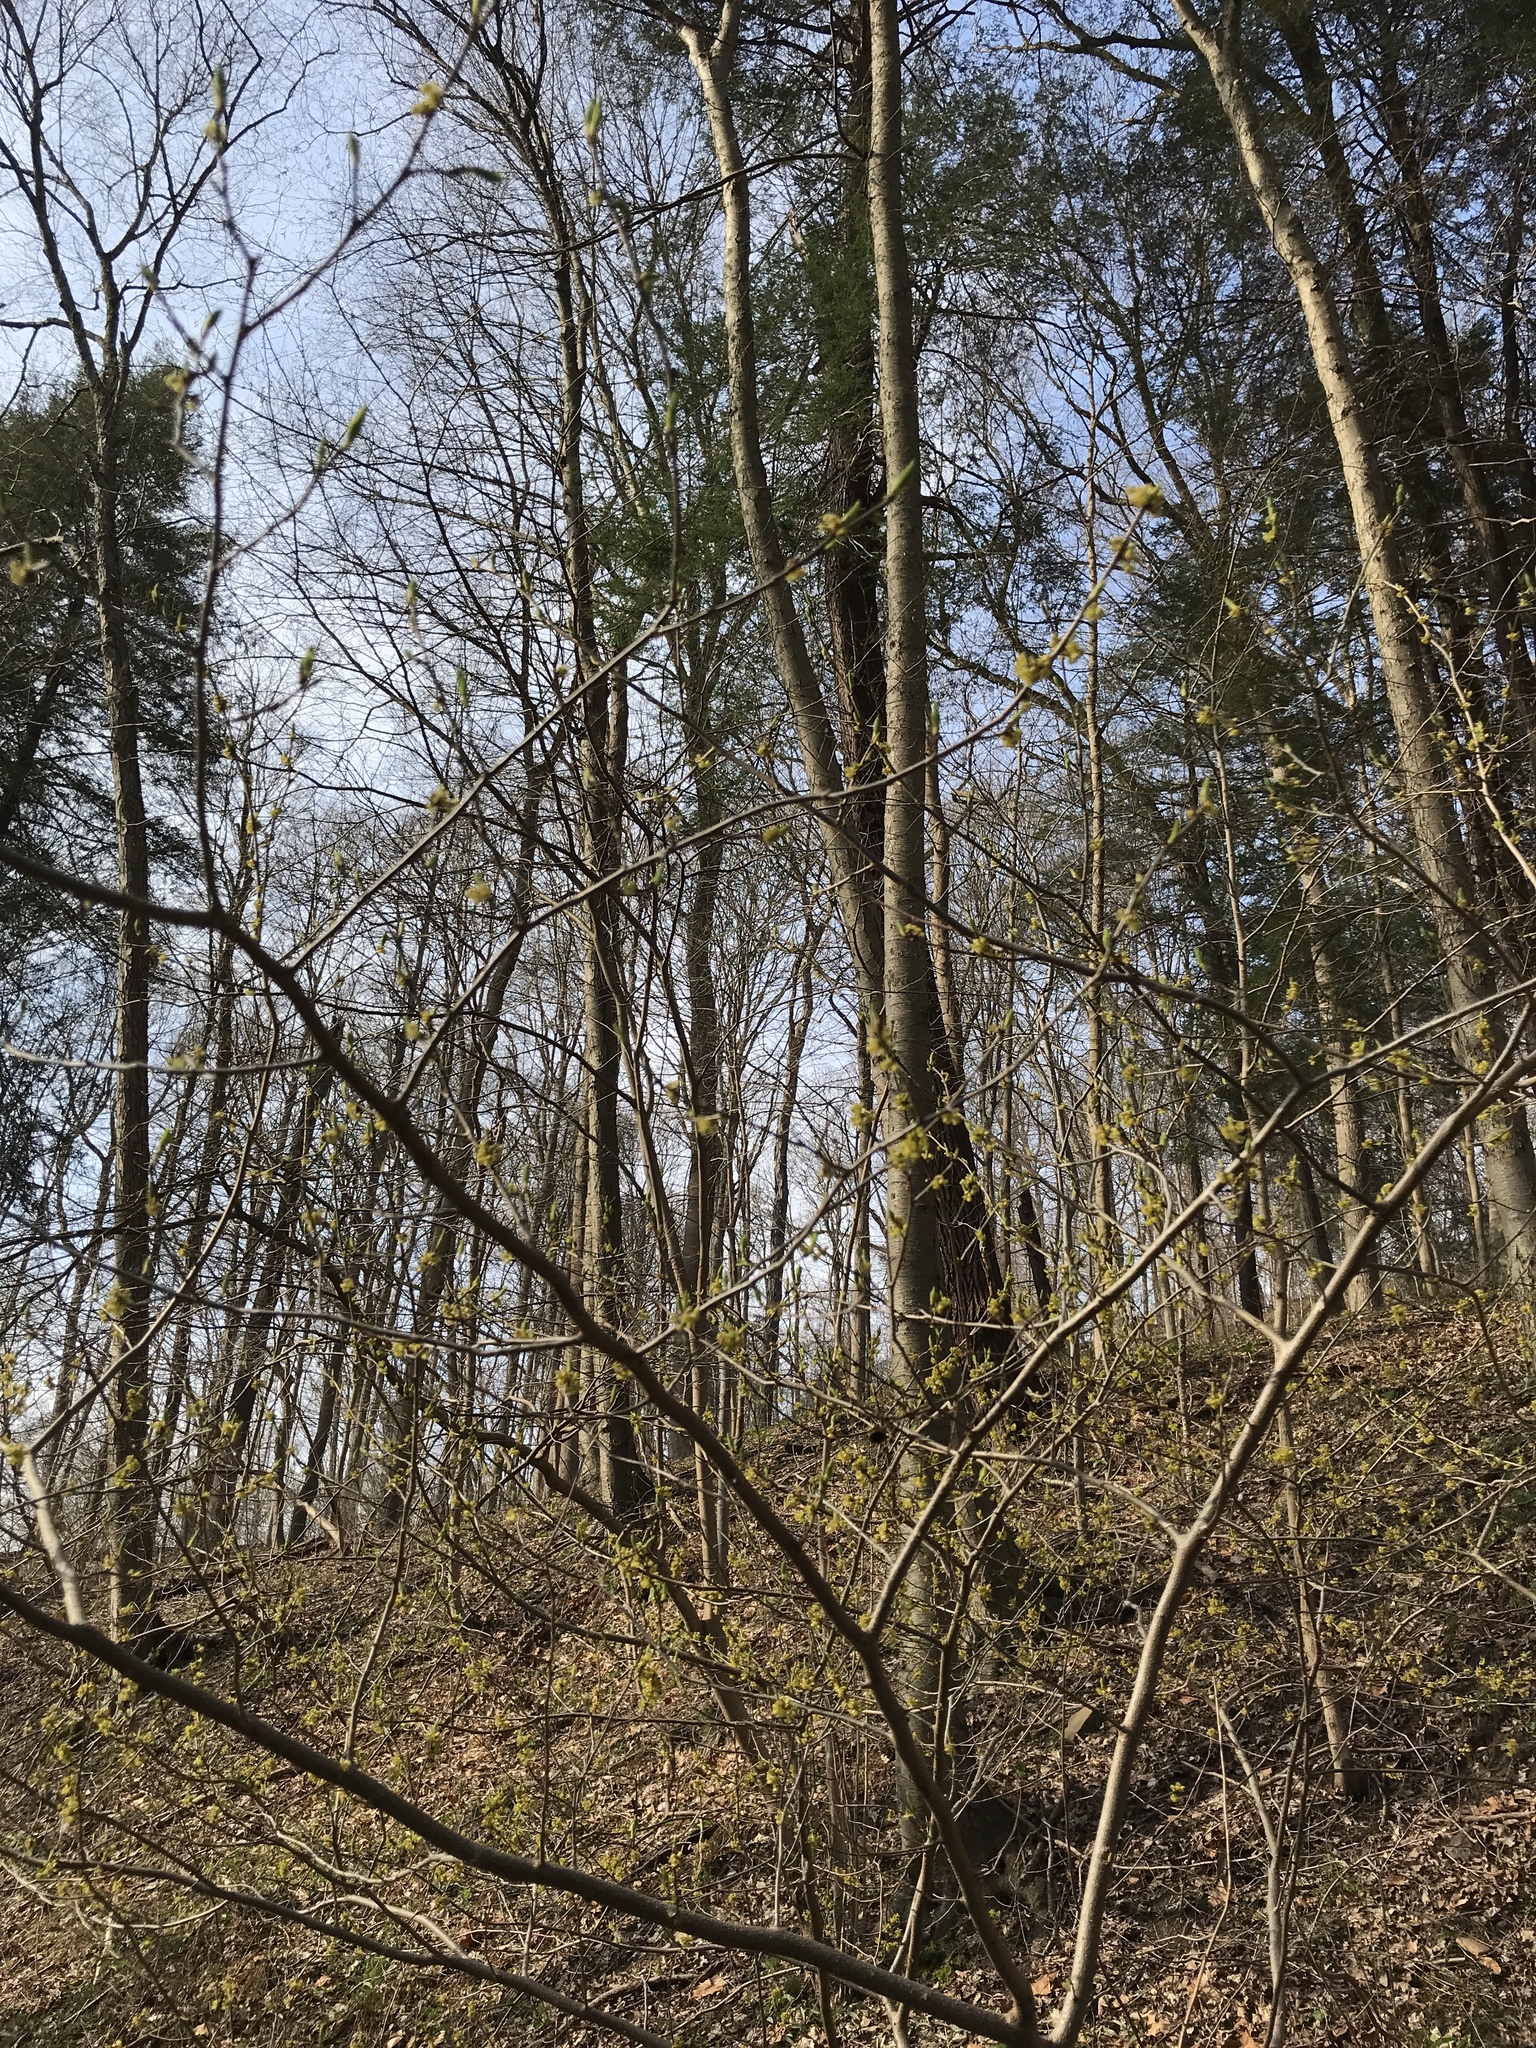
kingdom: Plantae
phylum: Tracheophyta
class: Magnoliopsida
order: Laurales
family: Lauraceae
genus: Lindera
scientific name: Lindera benzoin
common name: Spicebush
